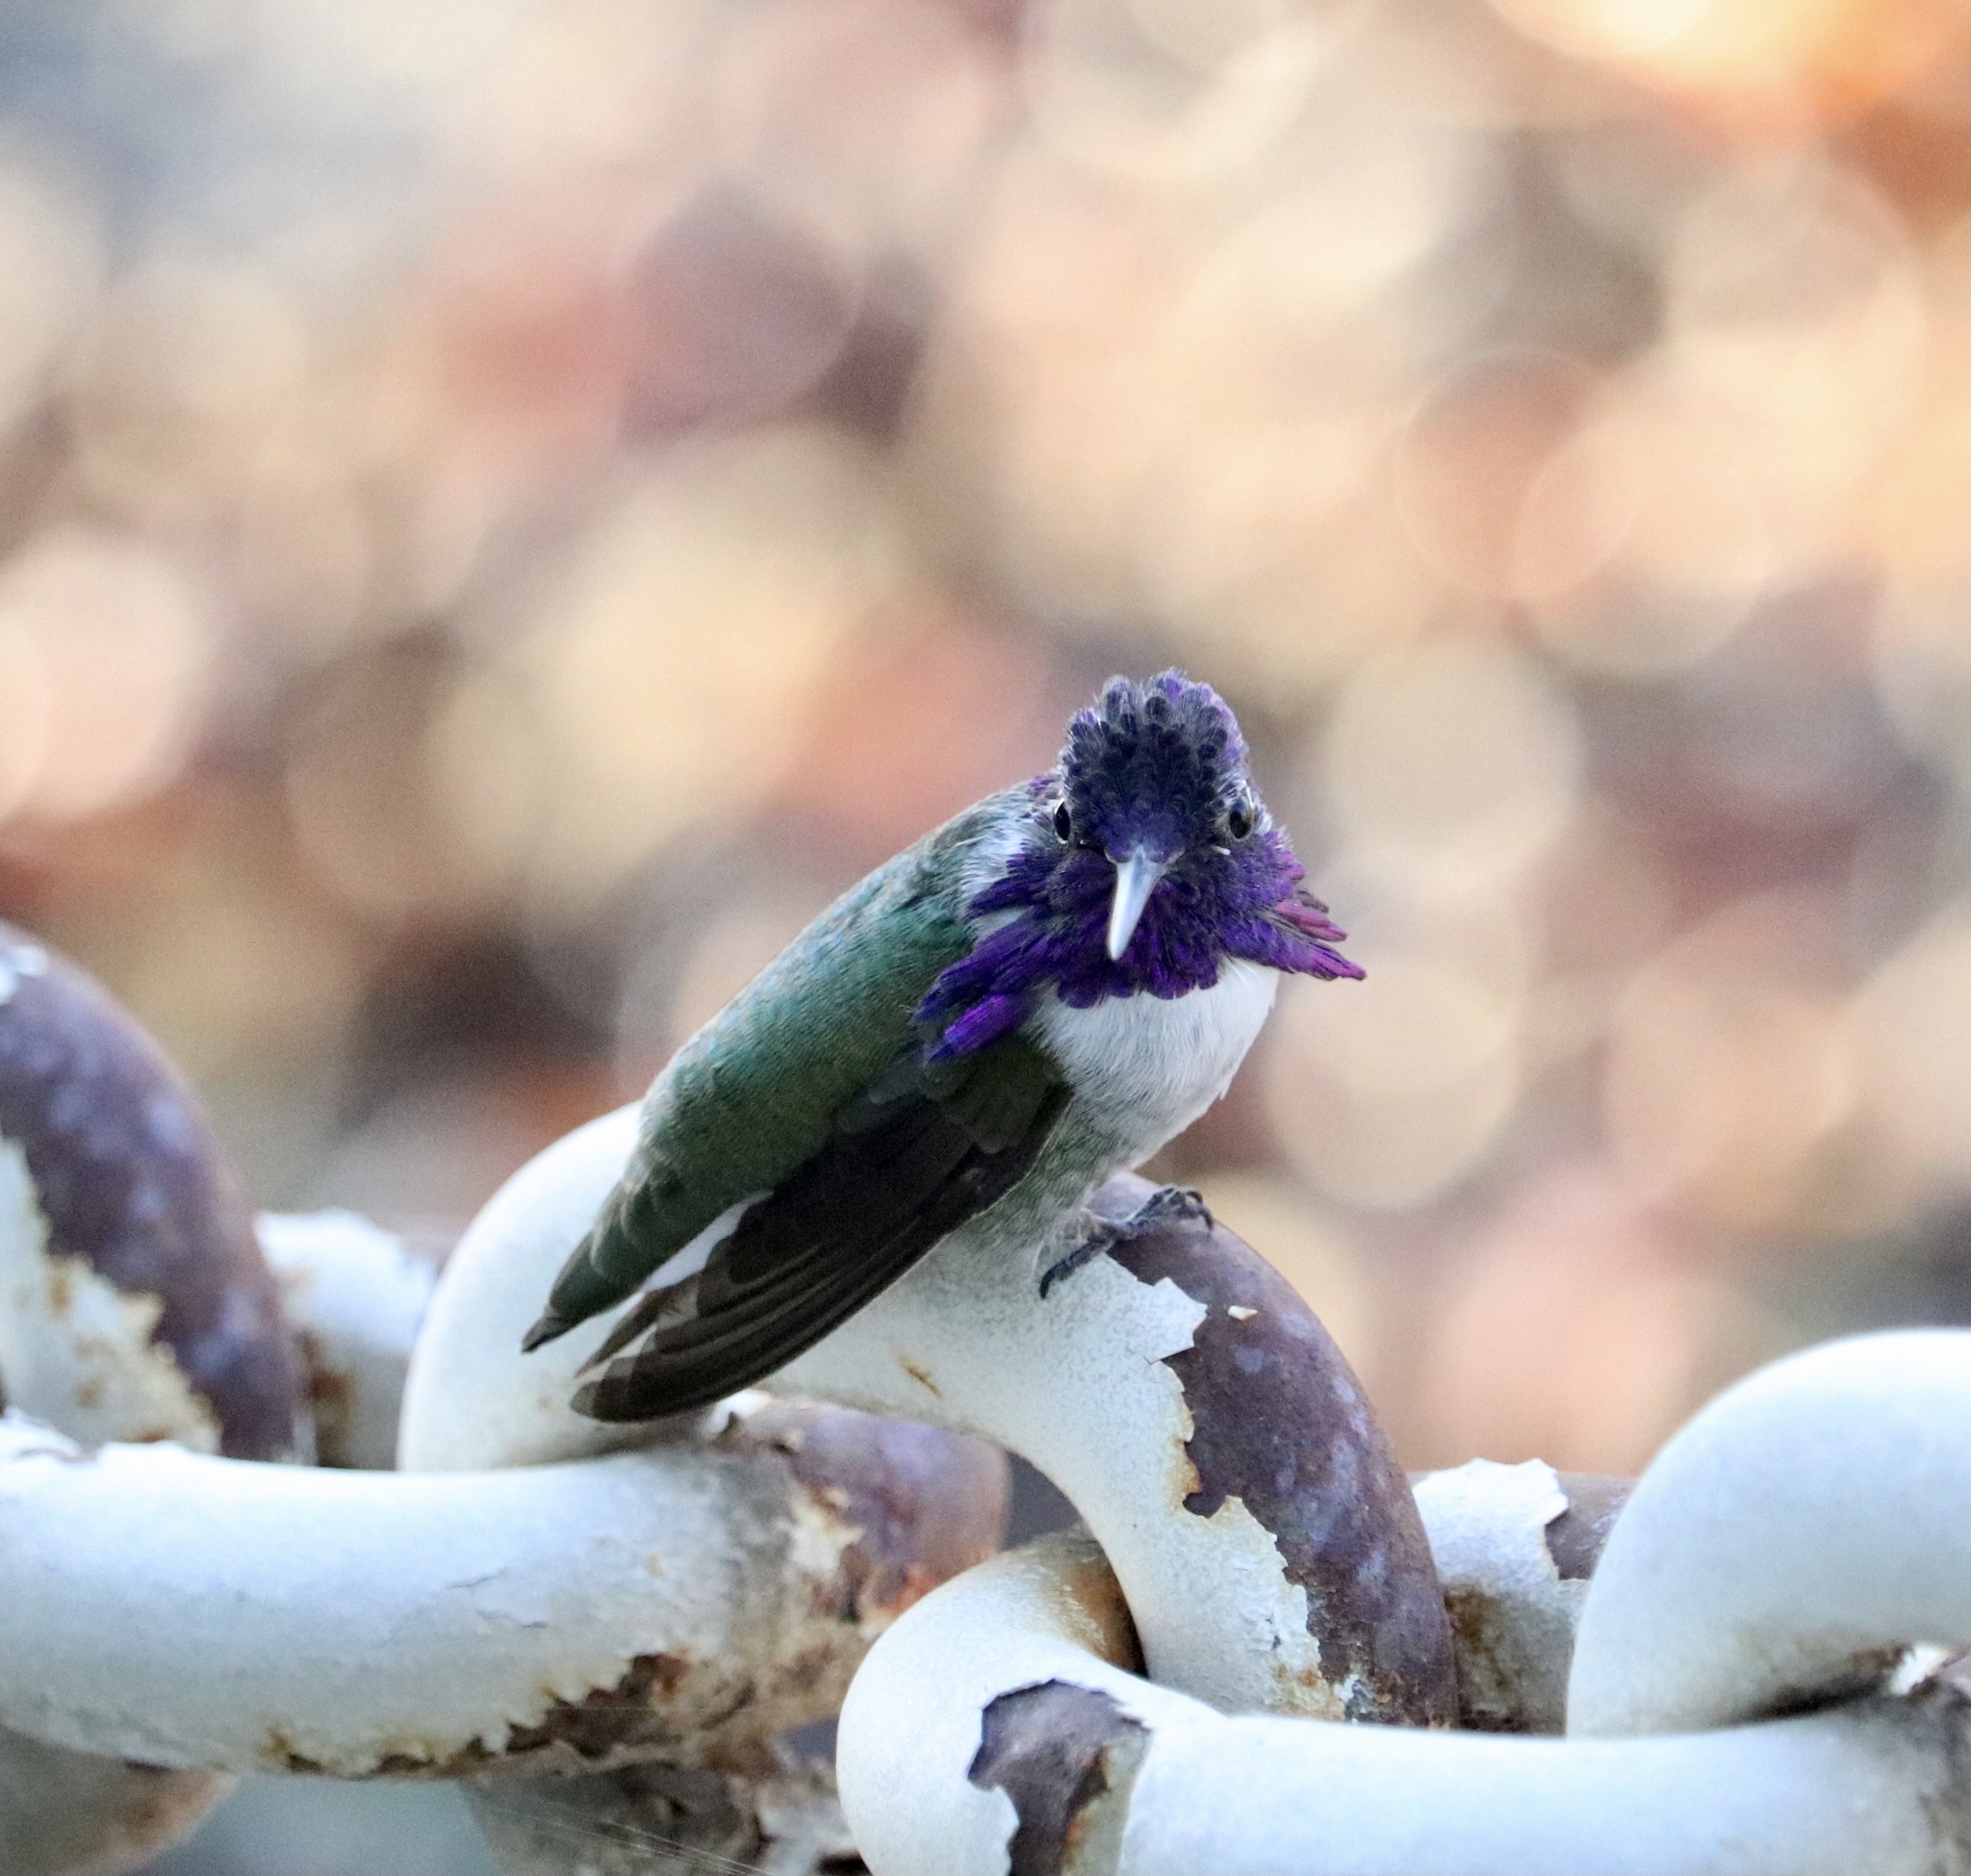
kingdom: Animalia
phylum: Chordata
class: Aves
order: Apodiformes
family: Trochilidae
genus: Calypte
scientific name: Calypte costae
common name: Costa's hummingbird
